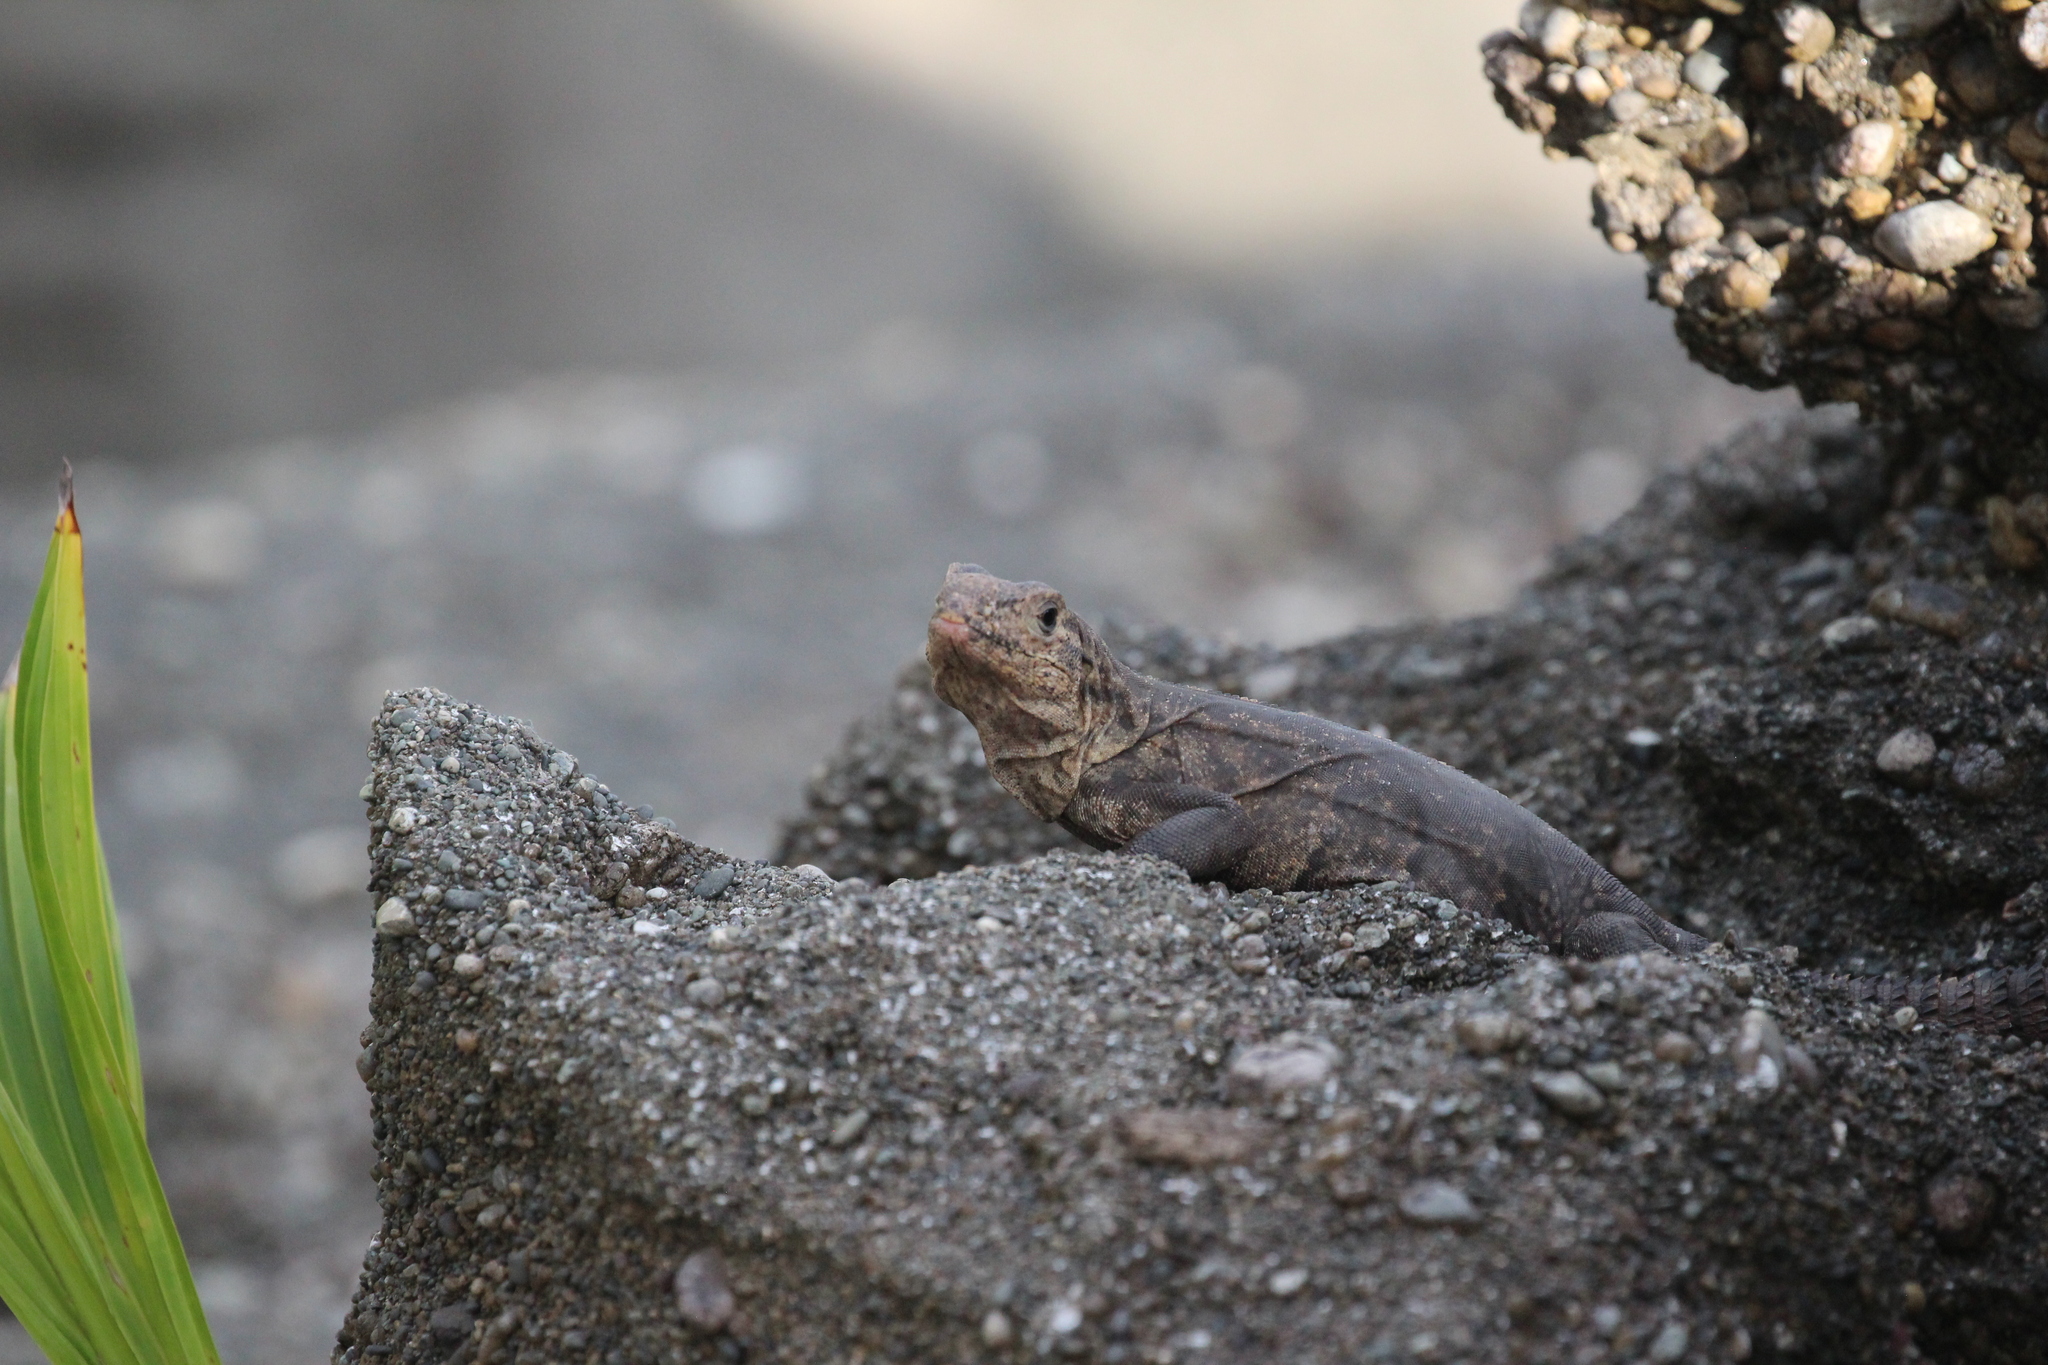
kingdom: Animalia
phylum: Chordata
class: Squamata
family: Iguanidae
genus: Ctenosaura
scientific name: Ctenosaura similis
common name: Black spiny-tailed iguana
